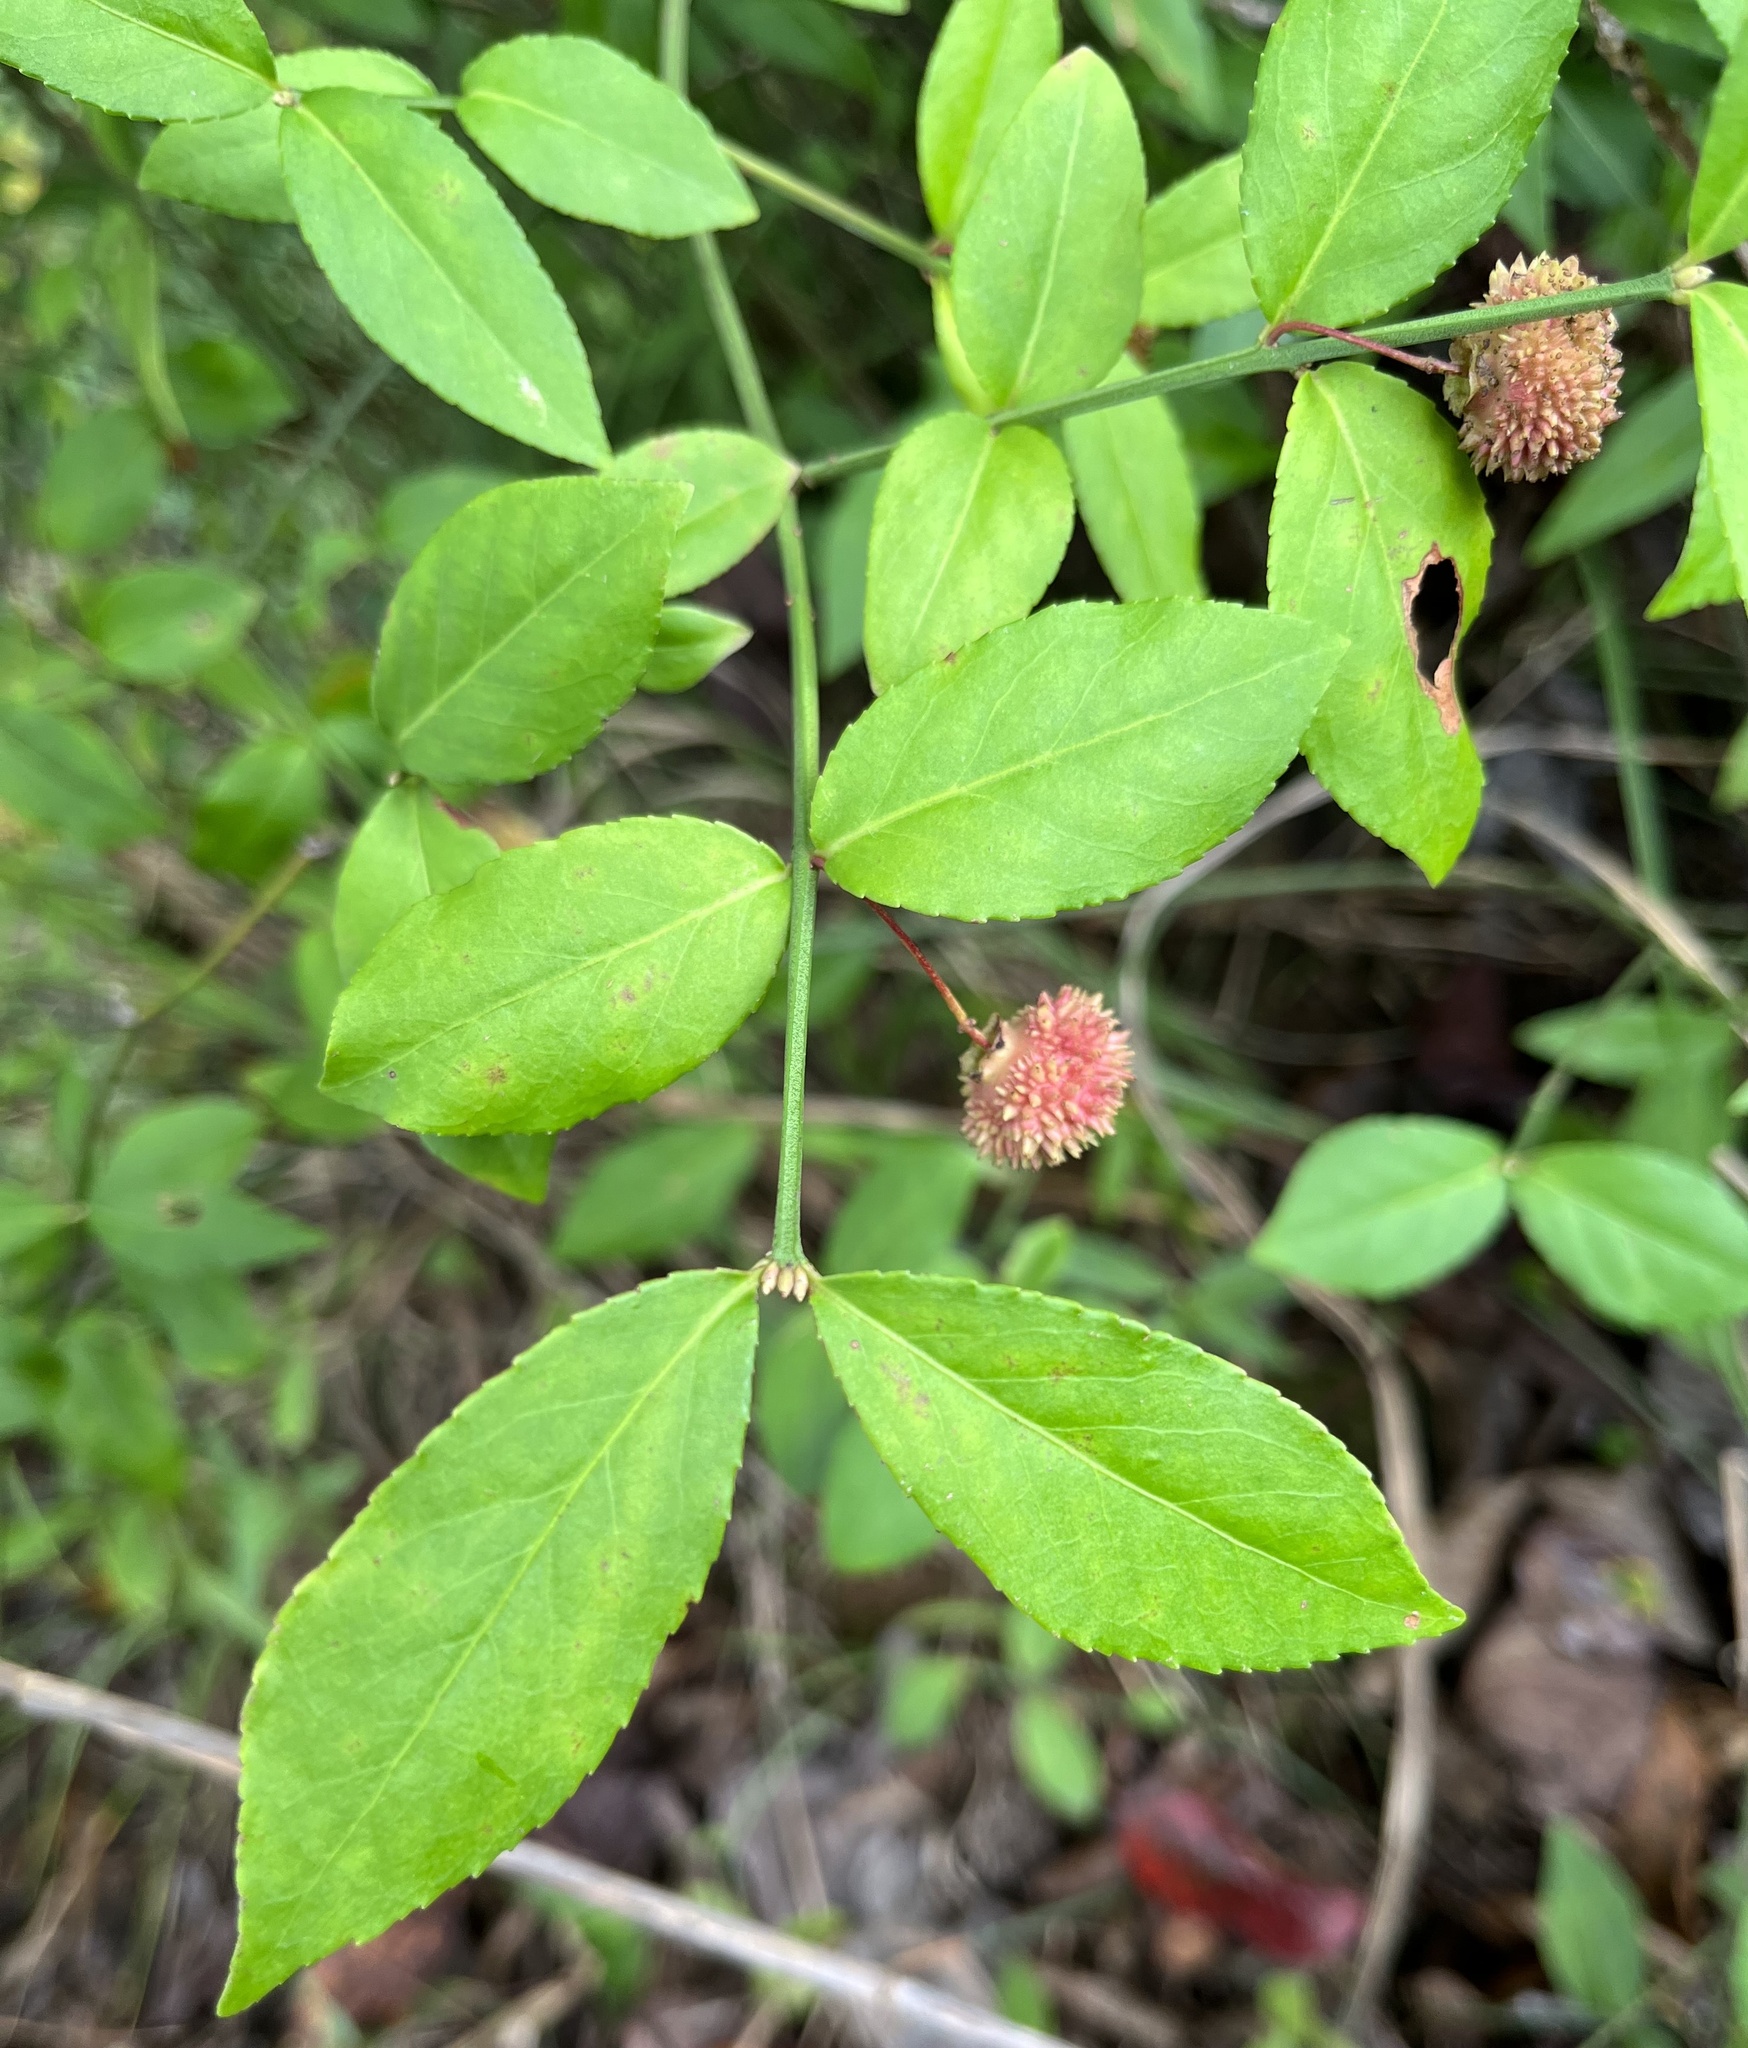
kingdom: Plantae
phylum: Tracheophyta
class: Magnoliopsida
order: Celastrales
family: Celastraceae
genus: Euonymus
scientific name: Euonymus americanus
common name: Bursting-heart
